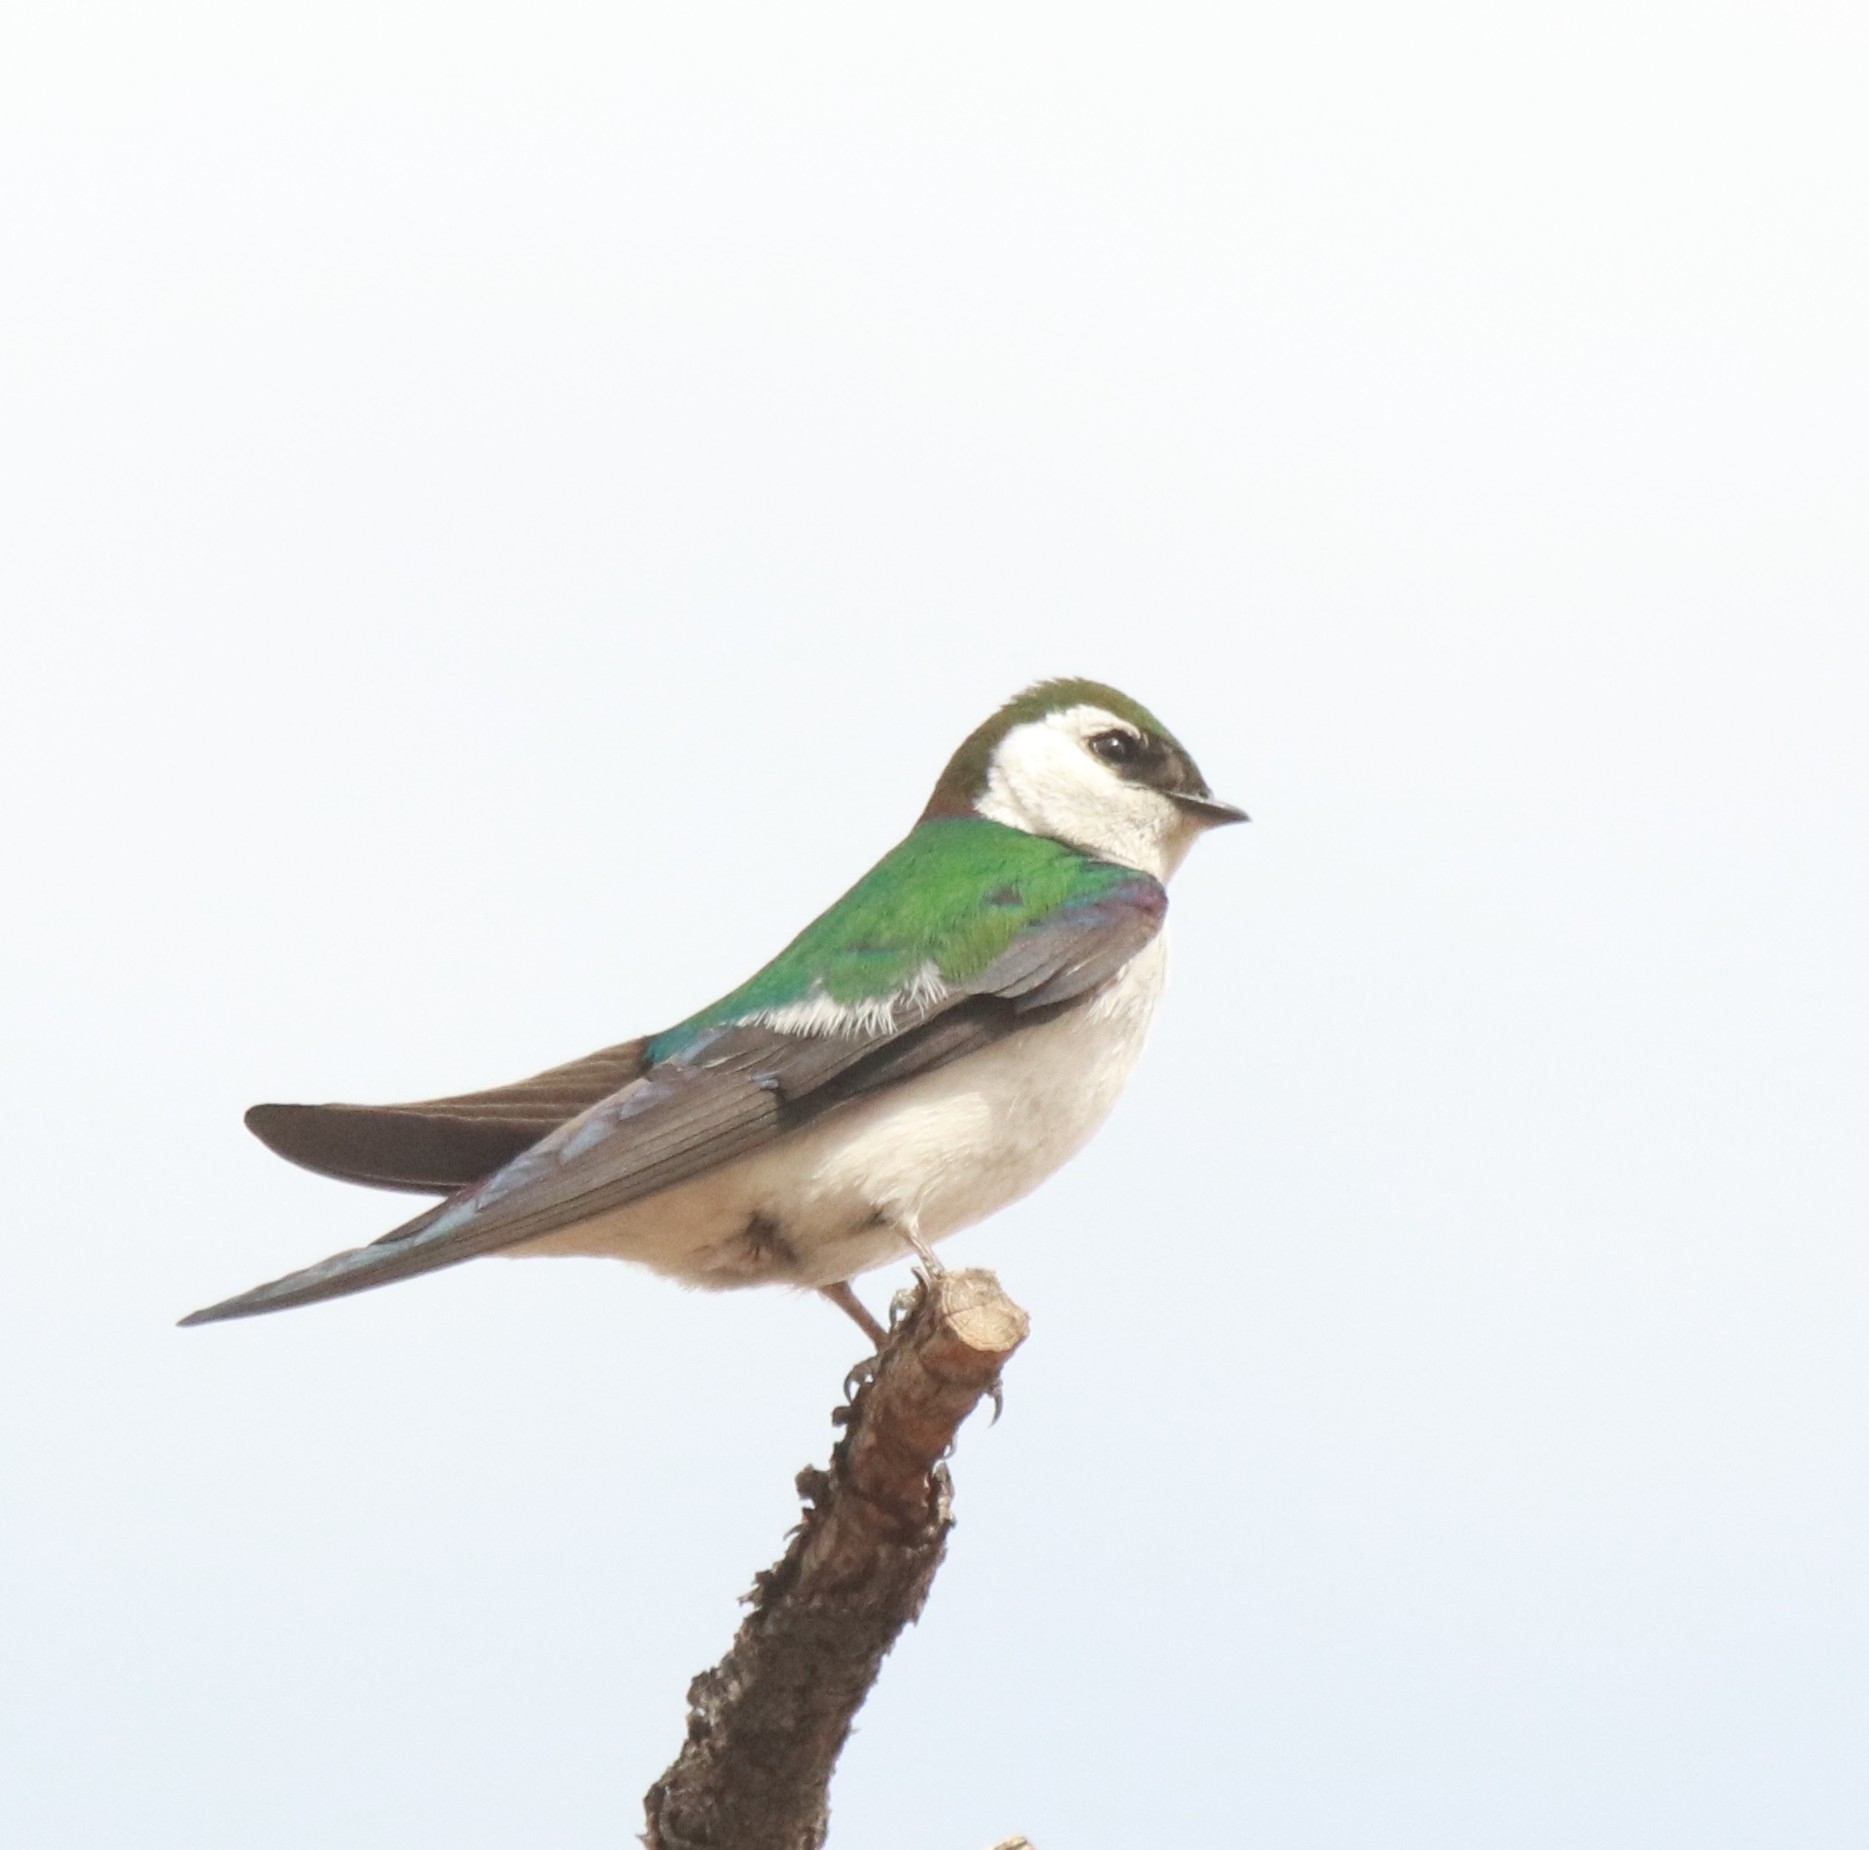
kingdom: Animalia
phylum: Chordata
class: Aves
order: Passeriformes
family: Hirundinidae
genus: Tachycineta
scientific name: Tachycineta thalassina
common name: Violet-green swallow
